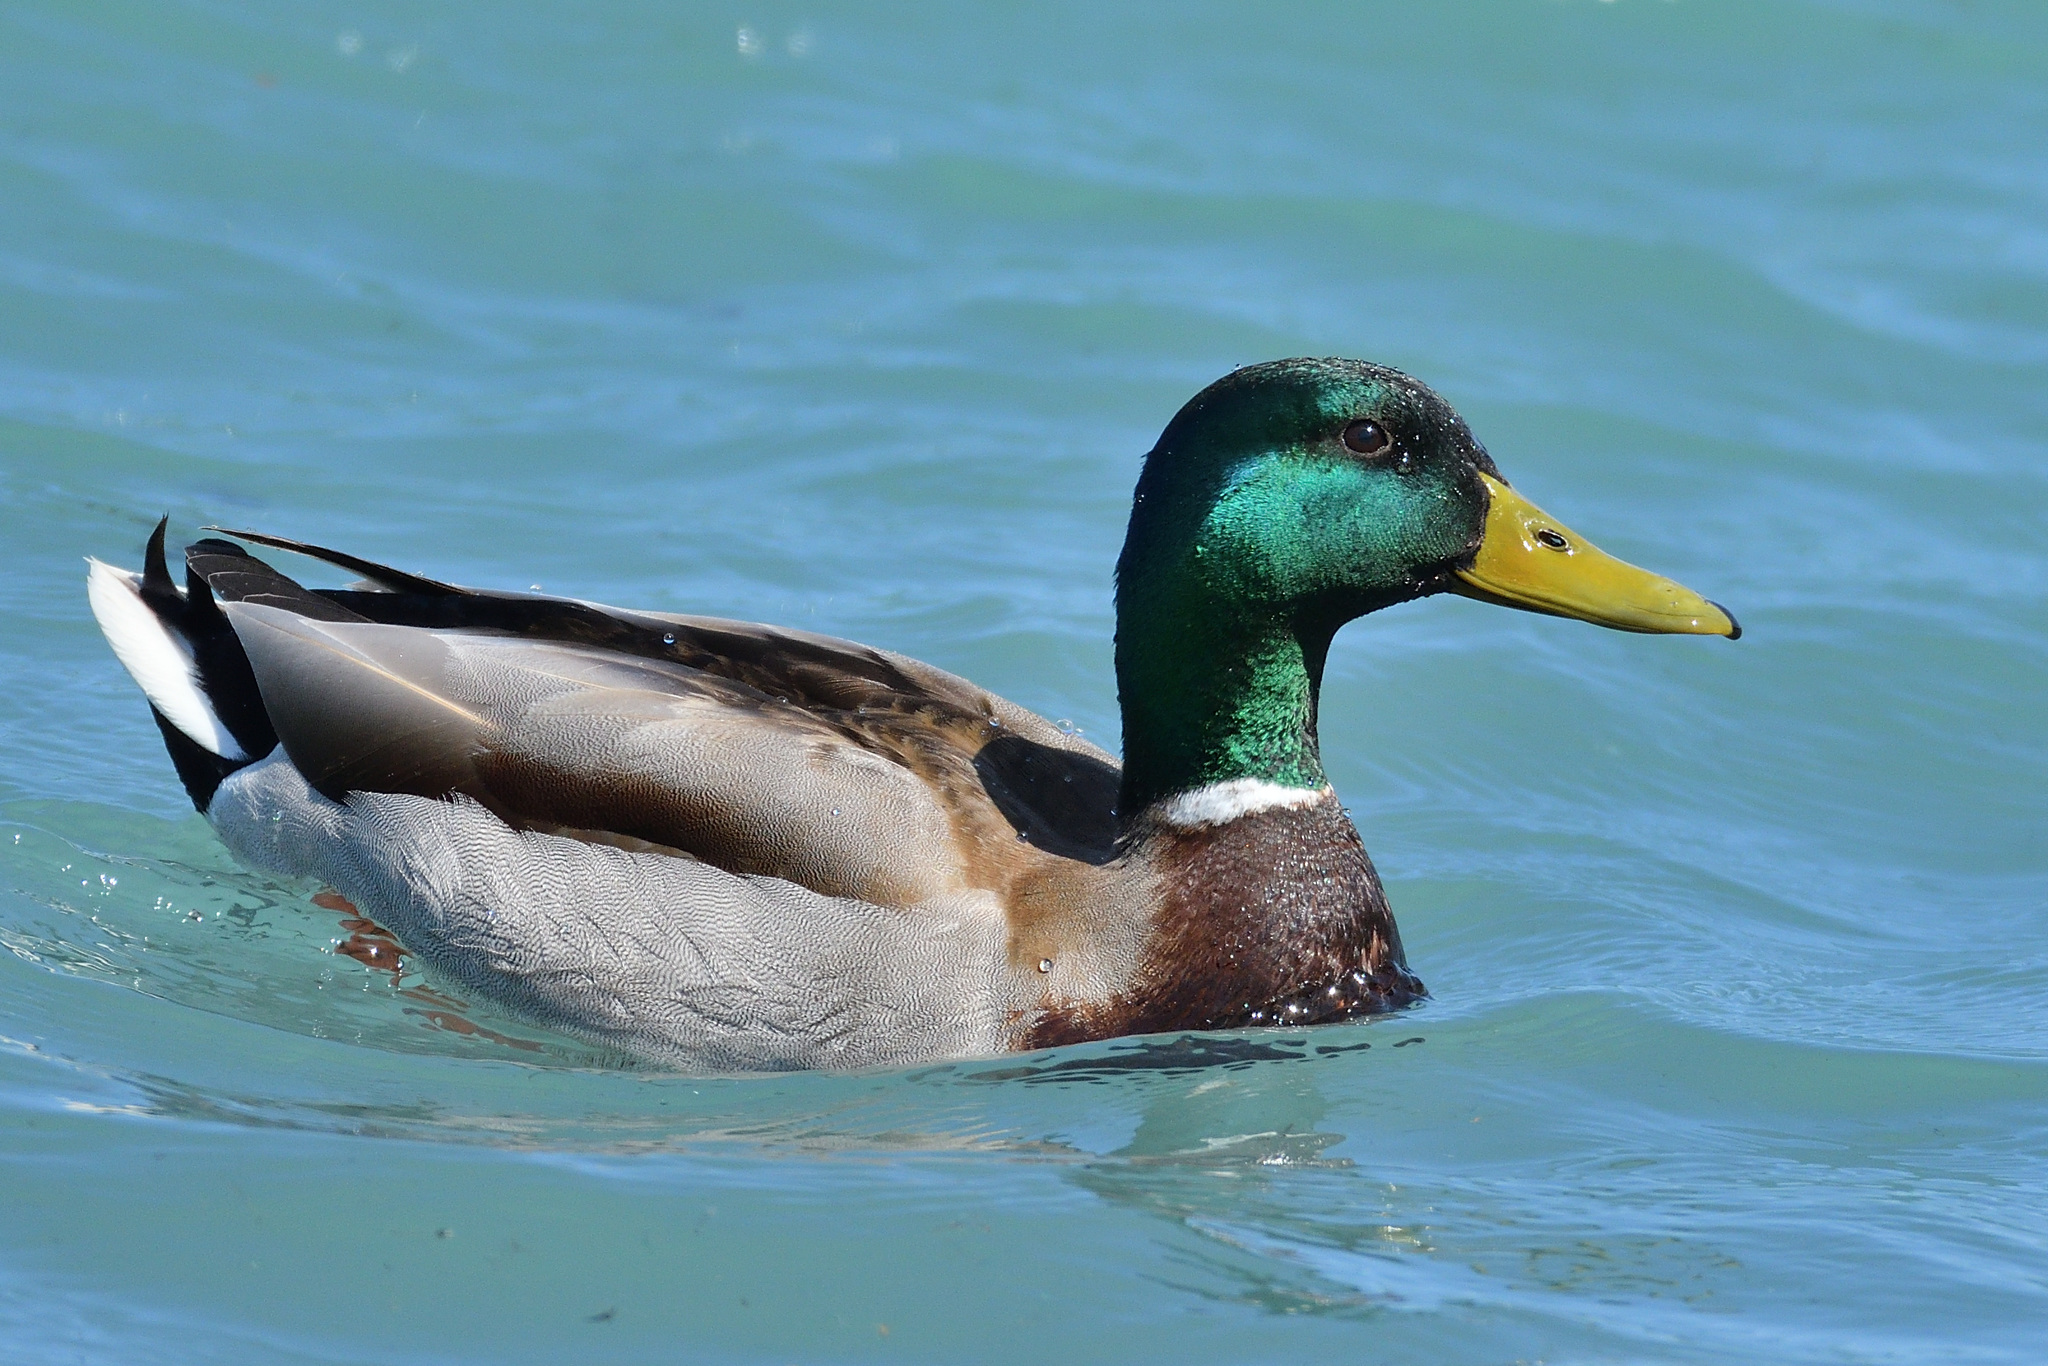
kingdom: Animalia
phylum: Chordata
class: Aves
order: Anseriformes
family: Anatidae
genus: Anas
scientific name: Anas platyrhynchos
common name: Mallard
